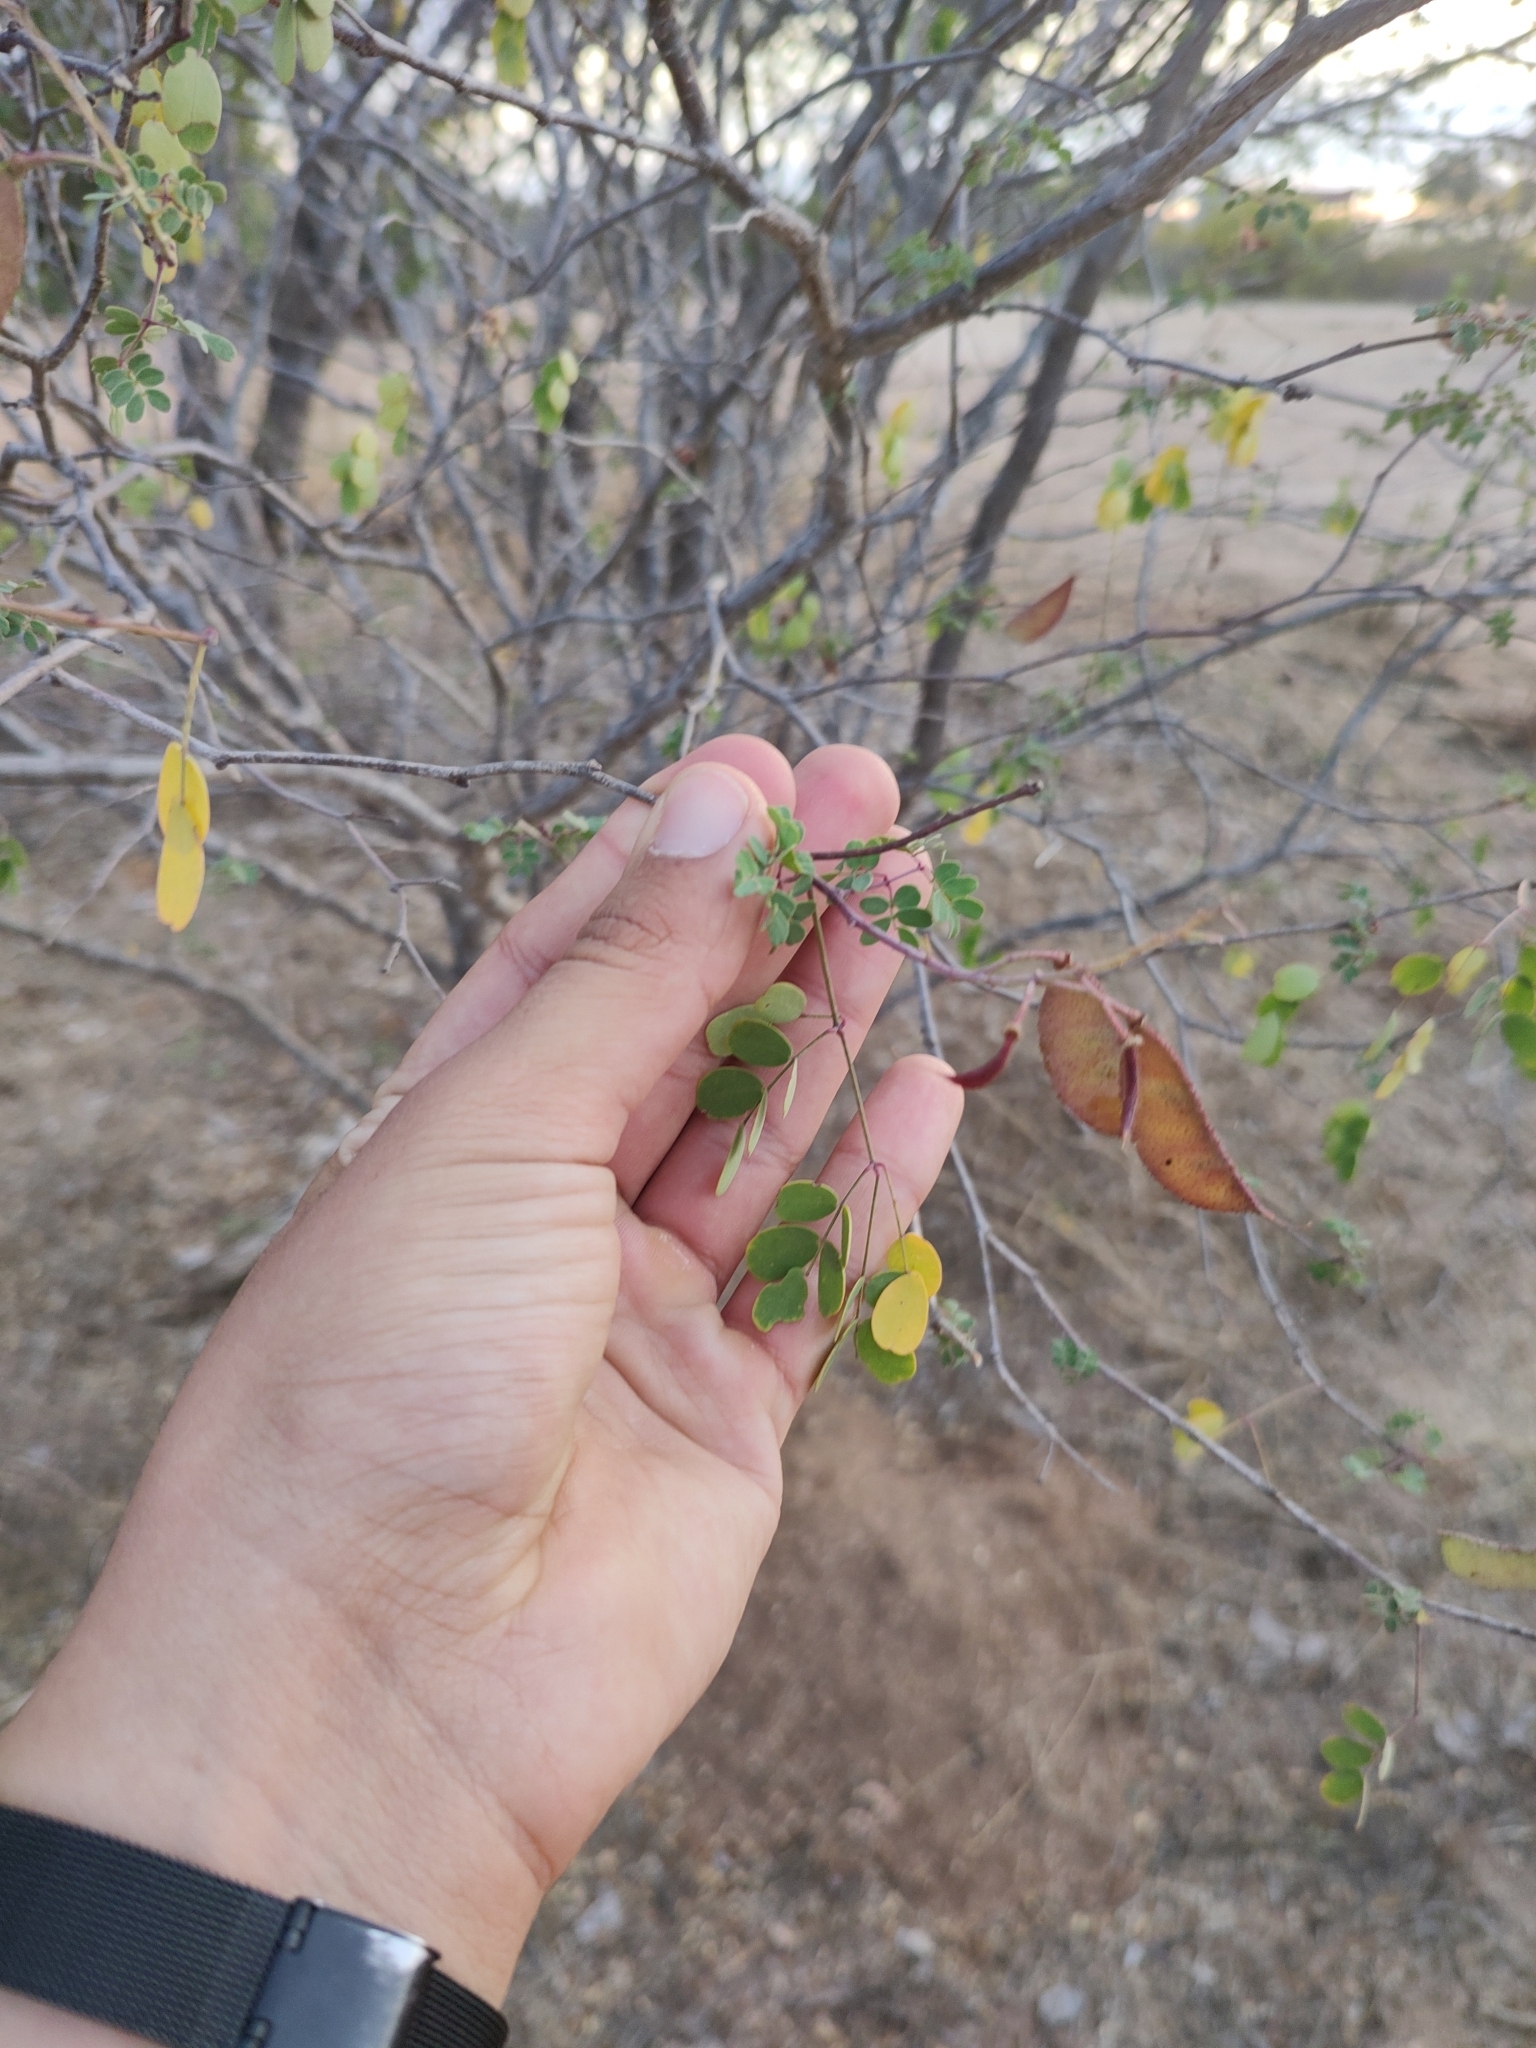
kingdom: Plantae
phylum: Tracheophyta
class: Magnoliopsida
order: Fabales
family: Fabaceae
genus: Erythrostemon
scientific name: Erythrostemon pannosus
